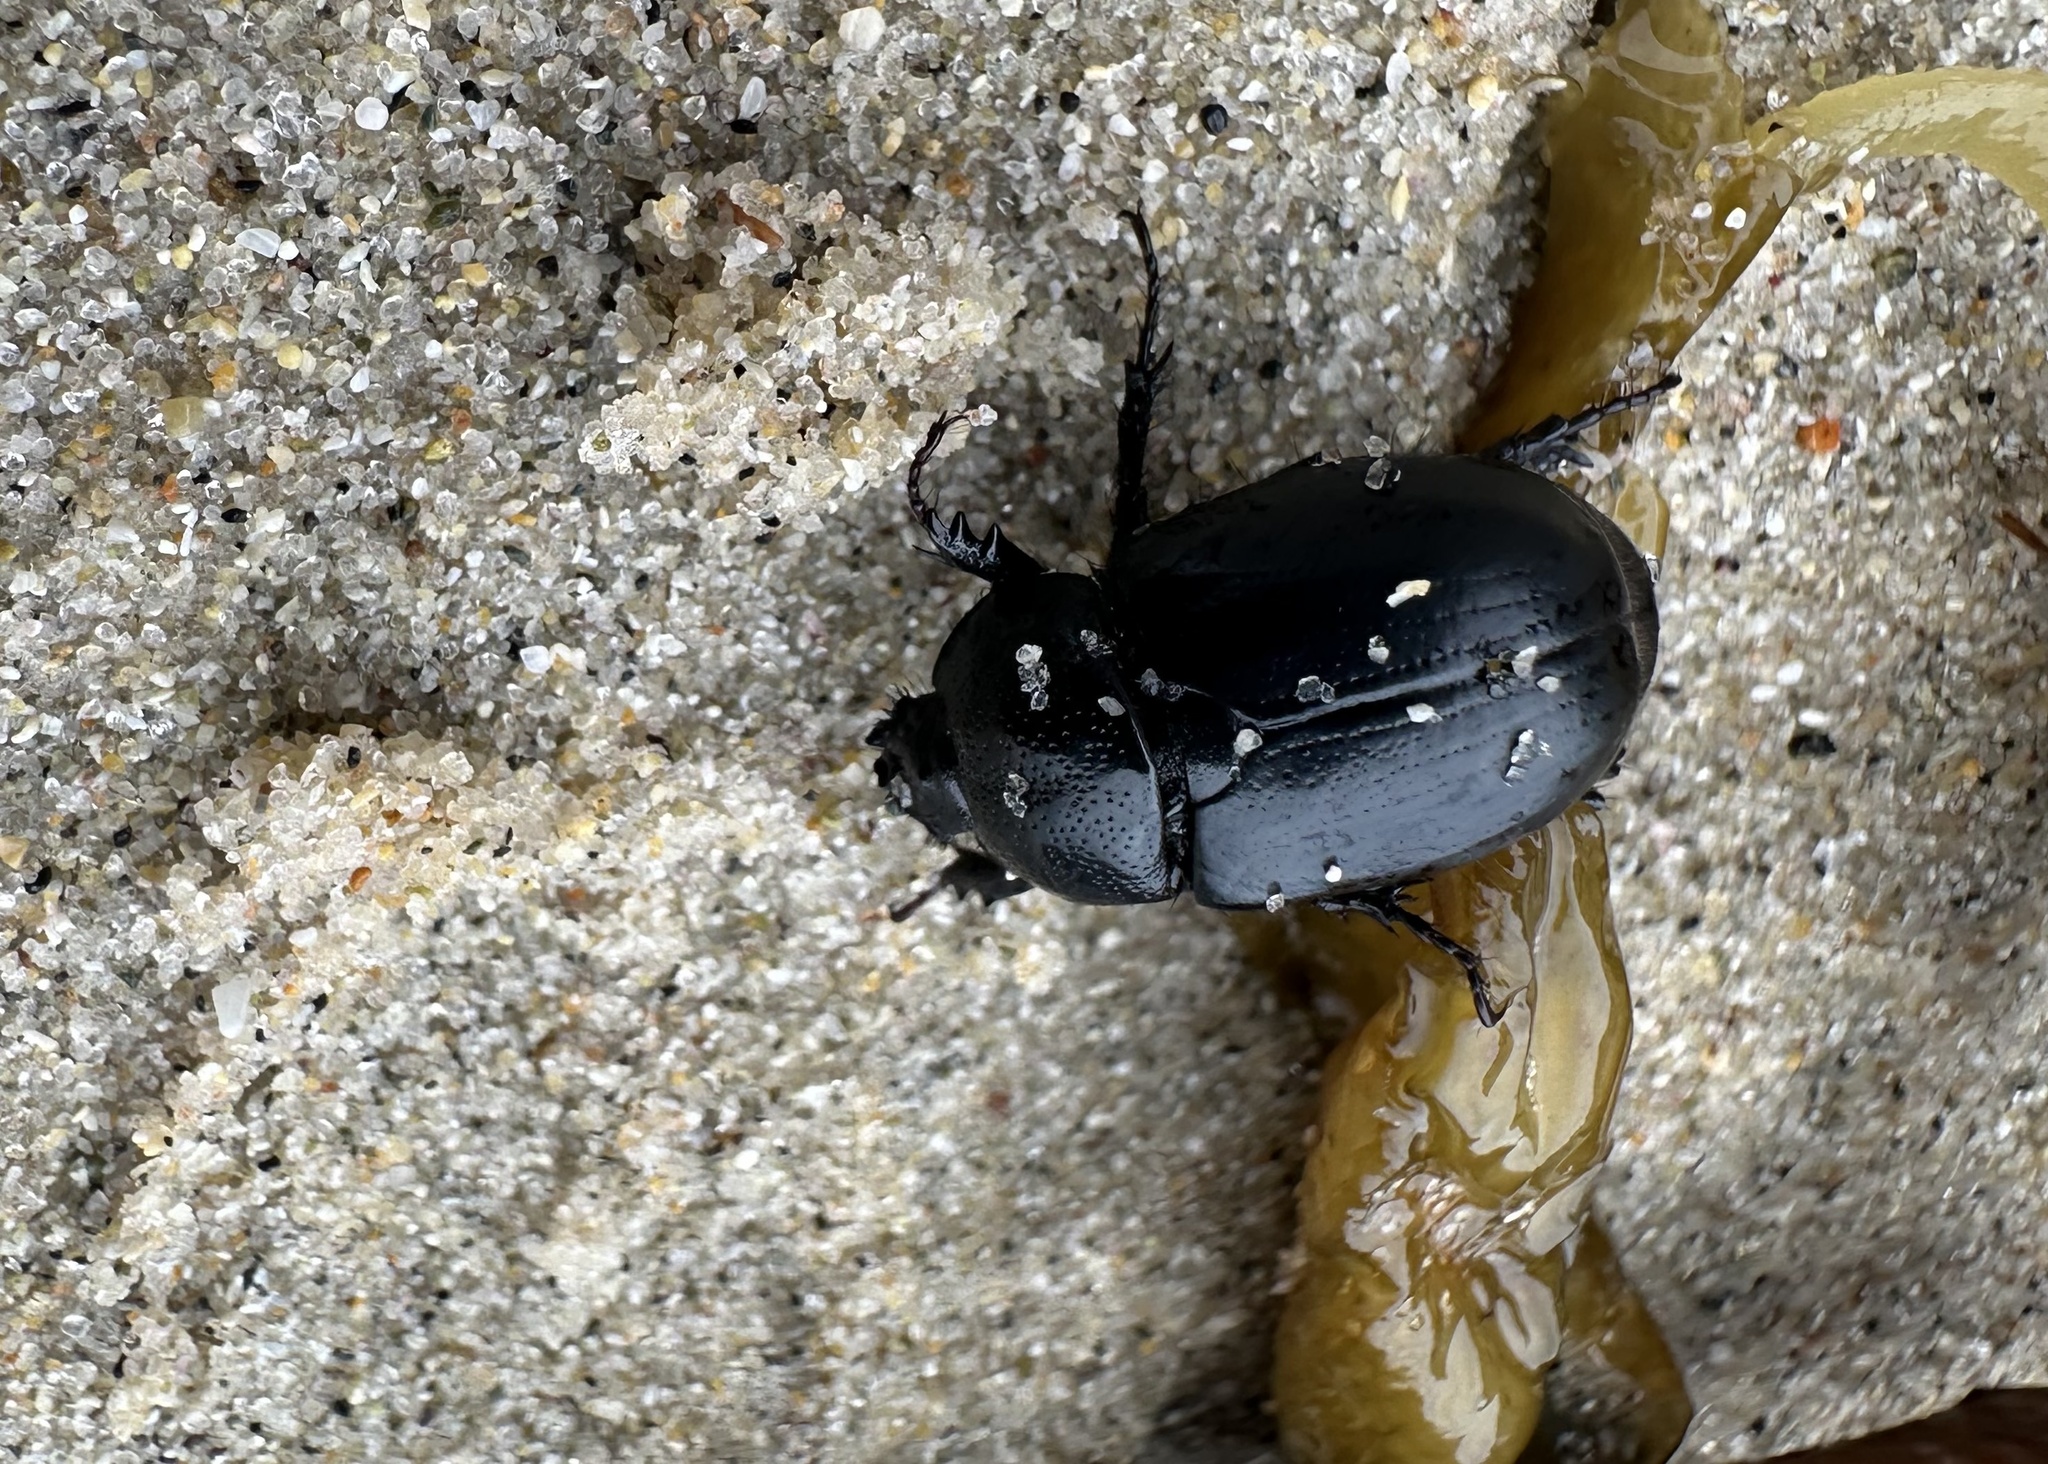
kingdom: Animalia
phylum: Arthropoda
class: Insecta
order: Coleoptera
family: Scarabaeidae
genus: Oryctomorphus
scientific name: Oryctomorphus maculicollis
